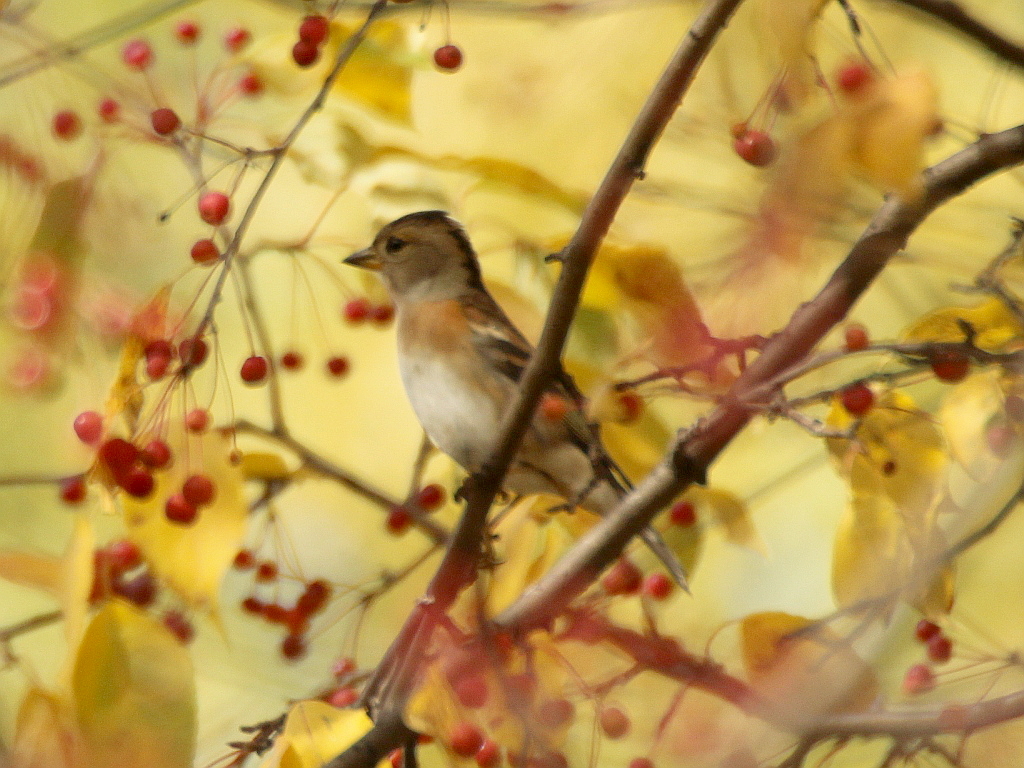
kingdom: Animalia
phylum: Chordata
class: Aves
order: Passeriformes
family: Fringillidae
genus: Fringilla
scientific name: Fringilla montifringilla
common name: Brambling
